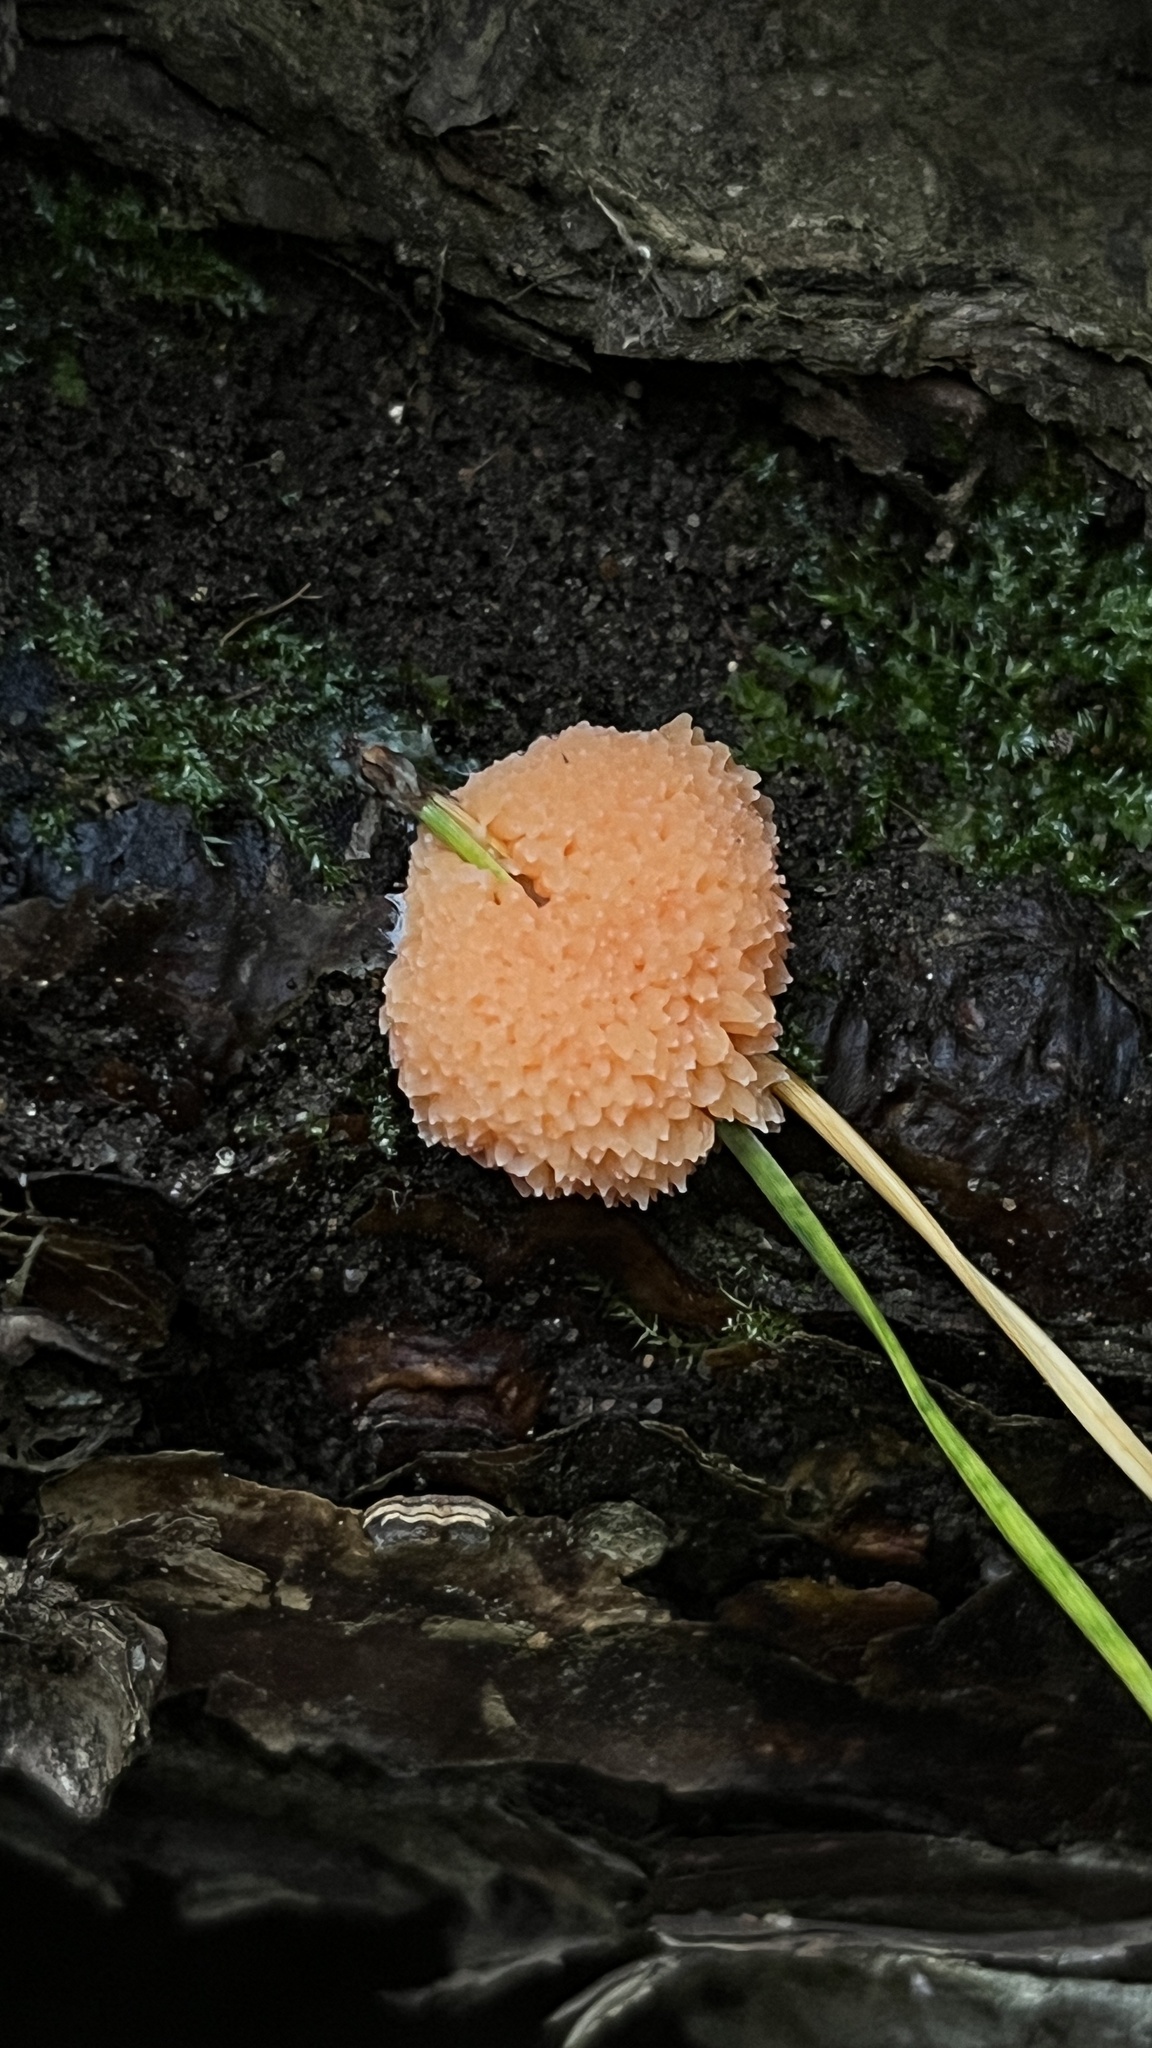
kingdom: Protozoa
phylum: Mycetozoa
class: Myxomycetes
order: Cribrariales
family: Tubiferaceae
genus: Tubifera
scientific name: Tubifera ferruginosa
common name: Red raspberry slime mold
